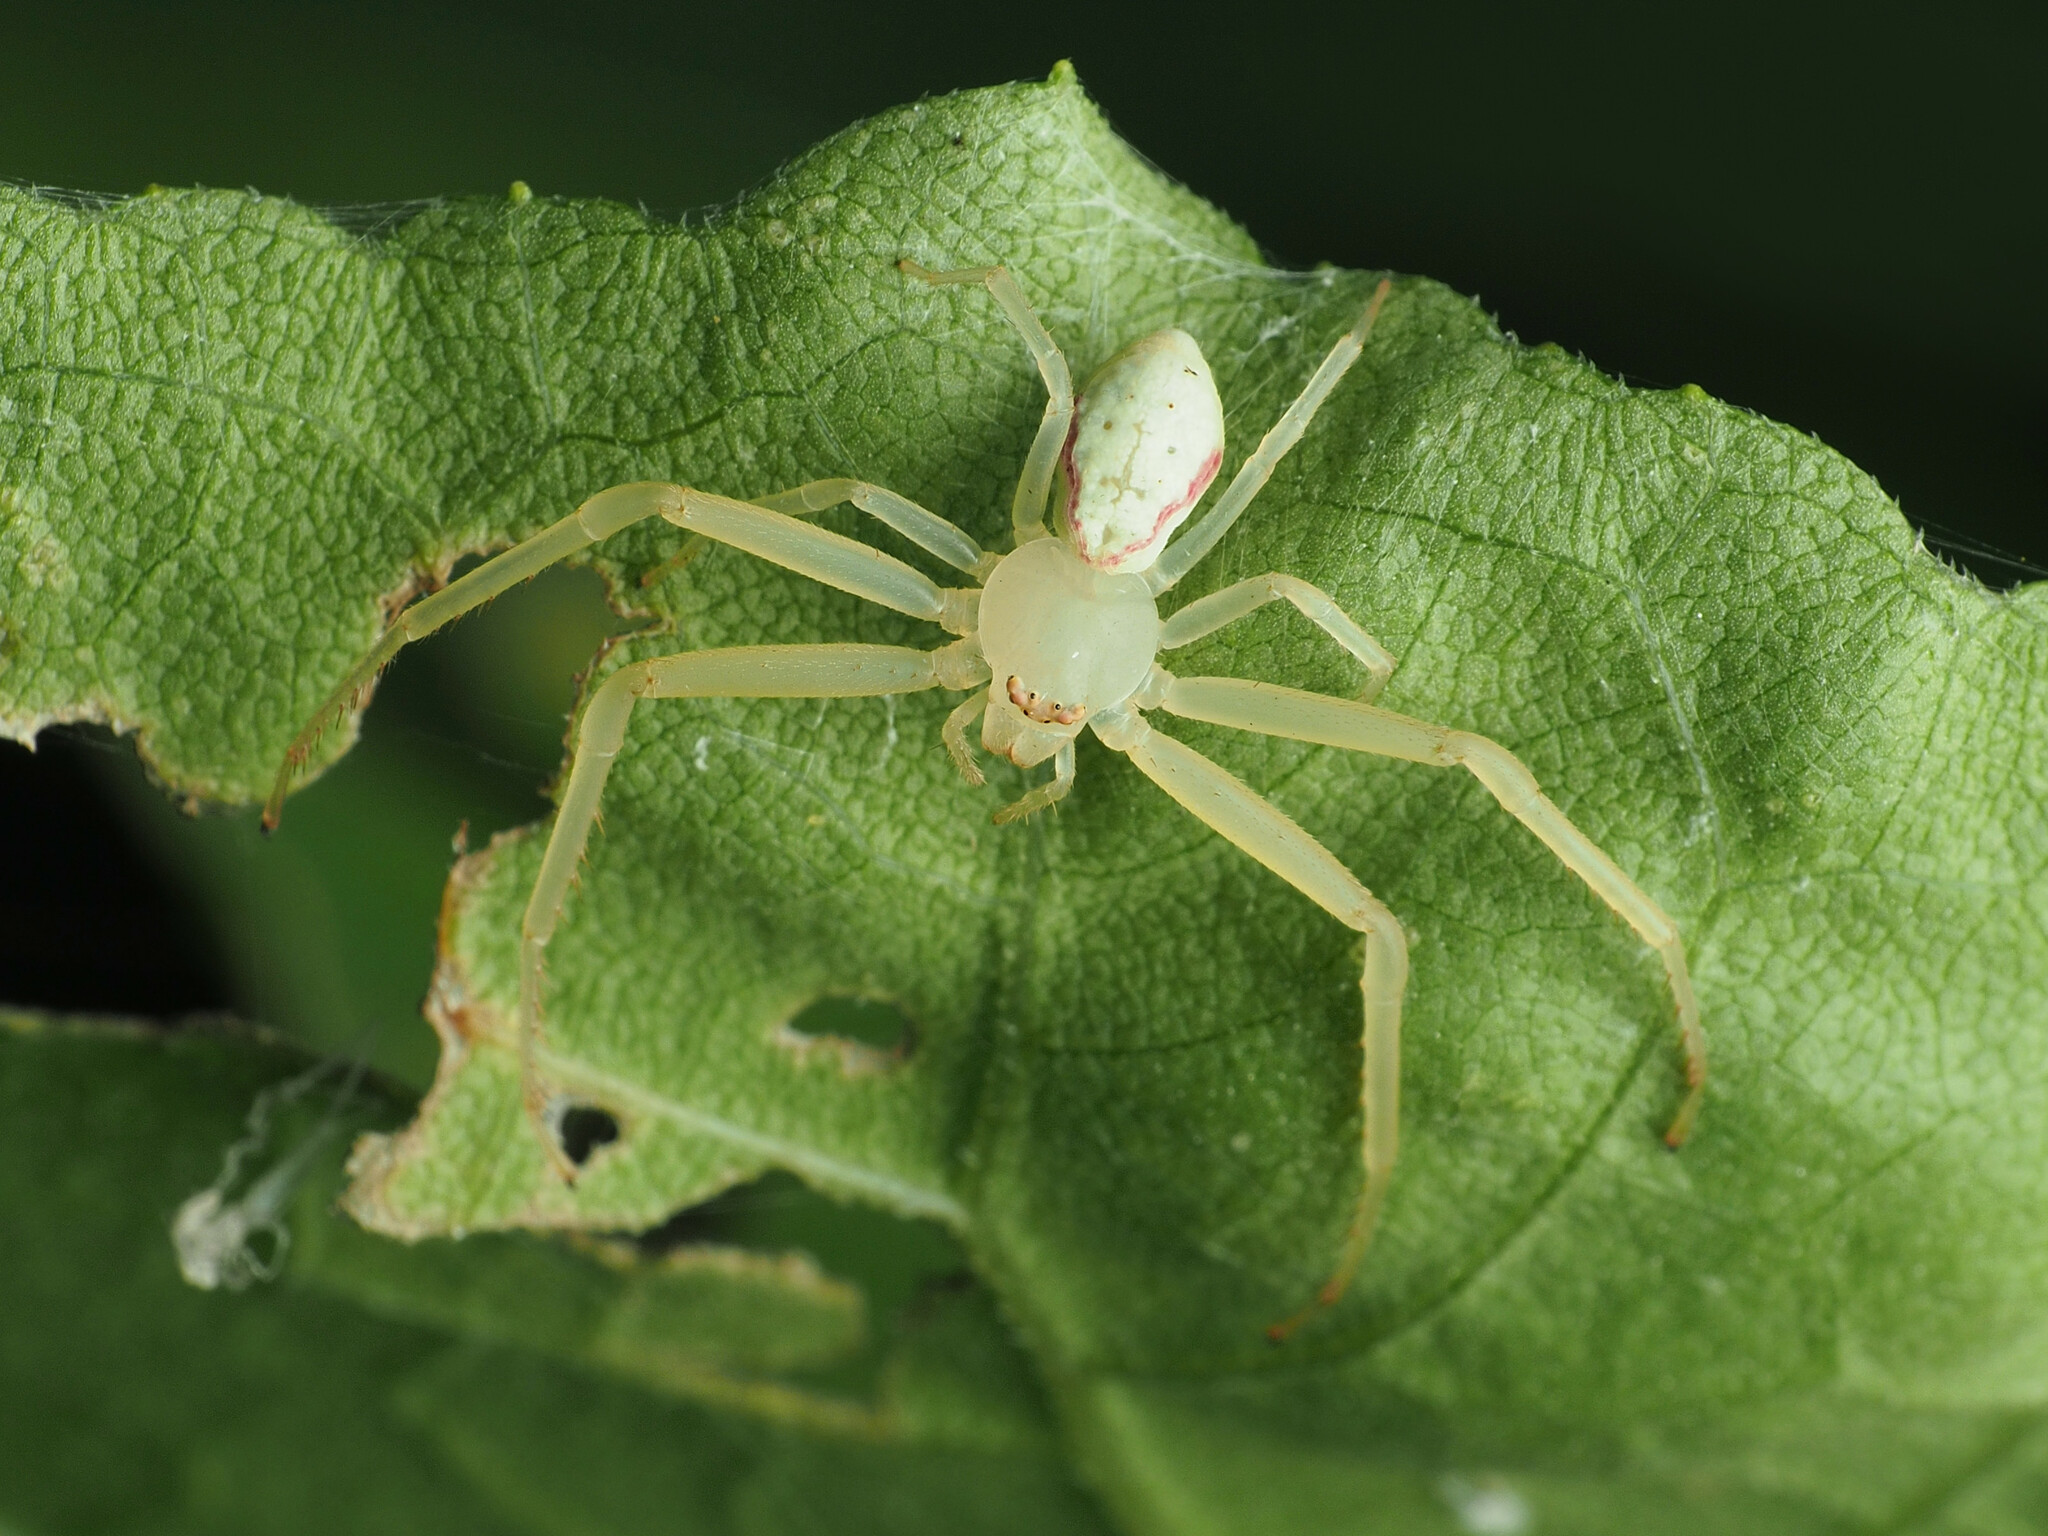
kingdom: Animalia
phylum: Arthropoda
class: Arachnida
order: Araneae
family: Thomisidae
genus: Misumessus
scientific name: Misumessus oblongus
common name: American green crab spider
